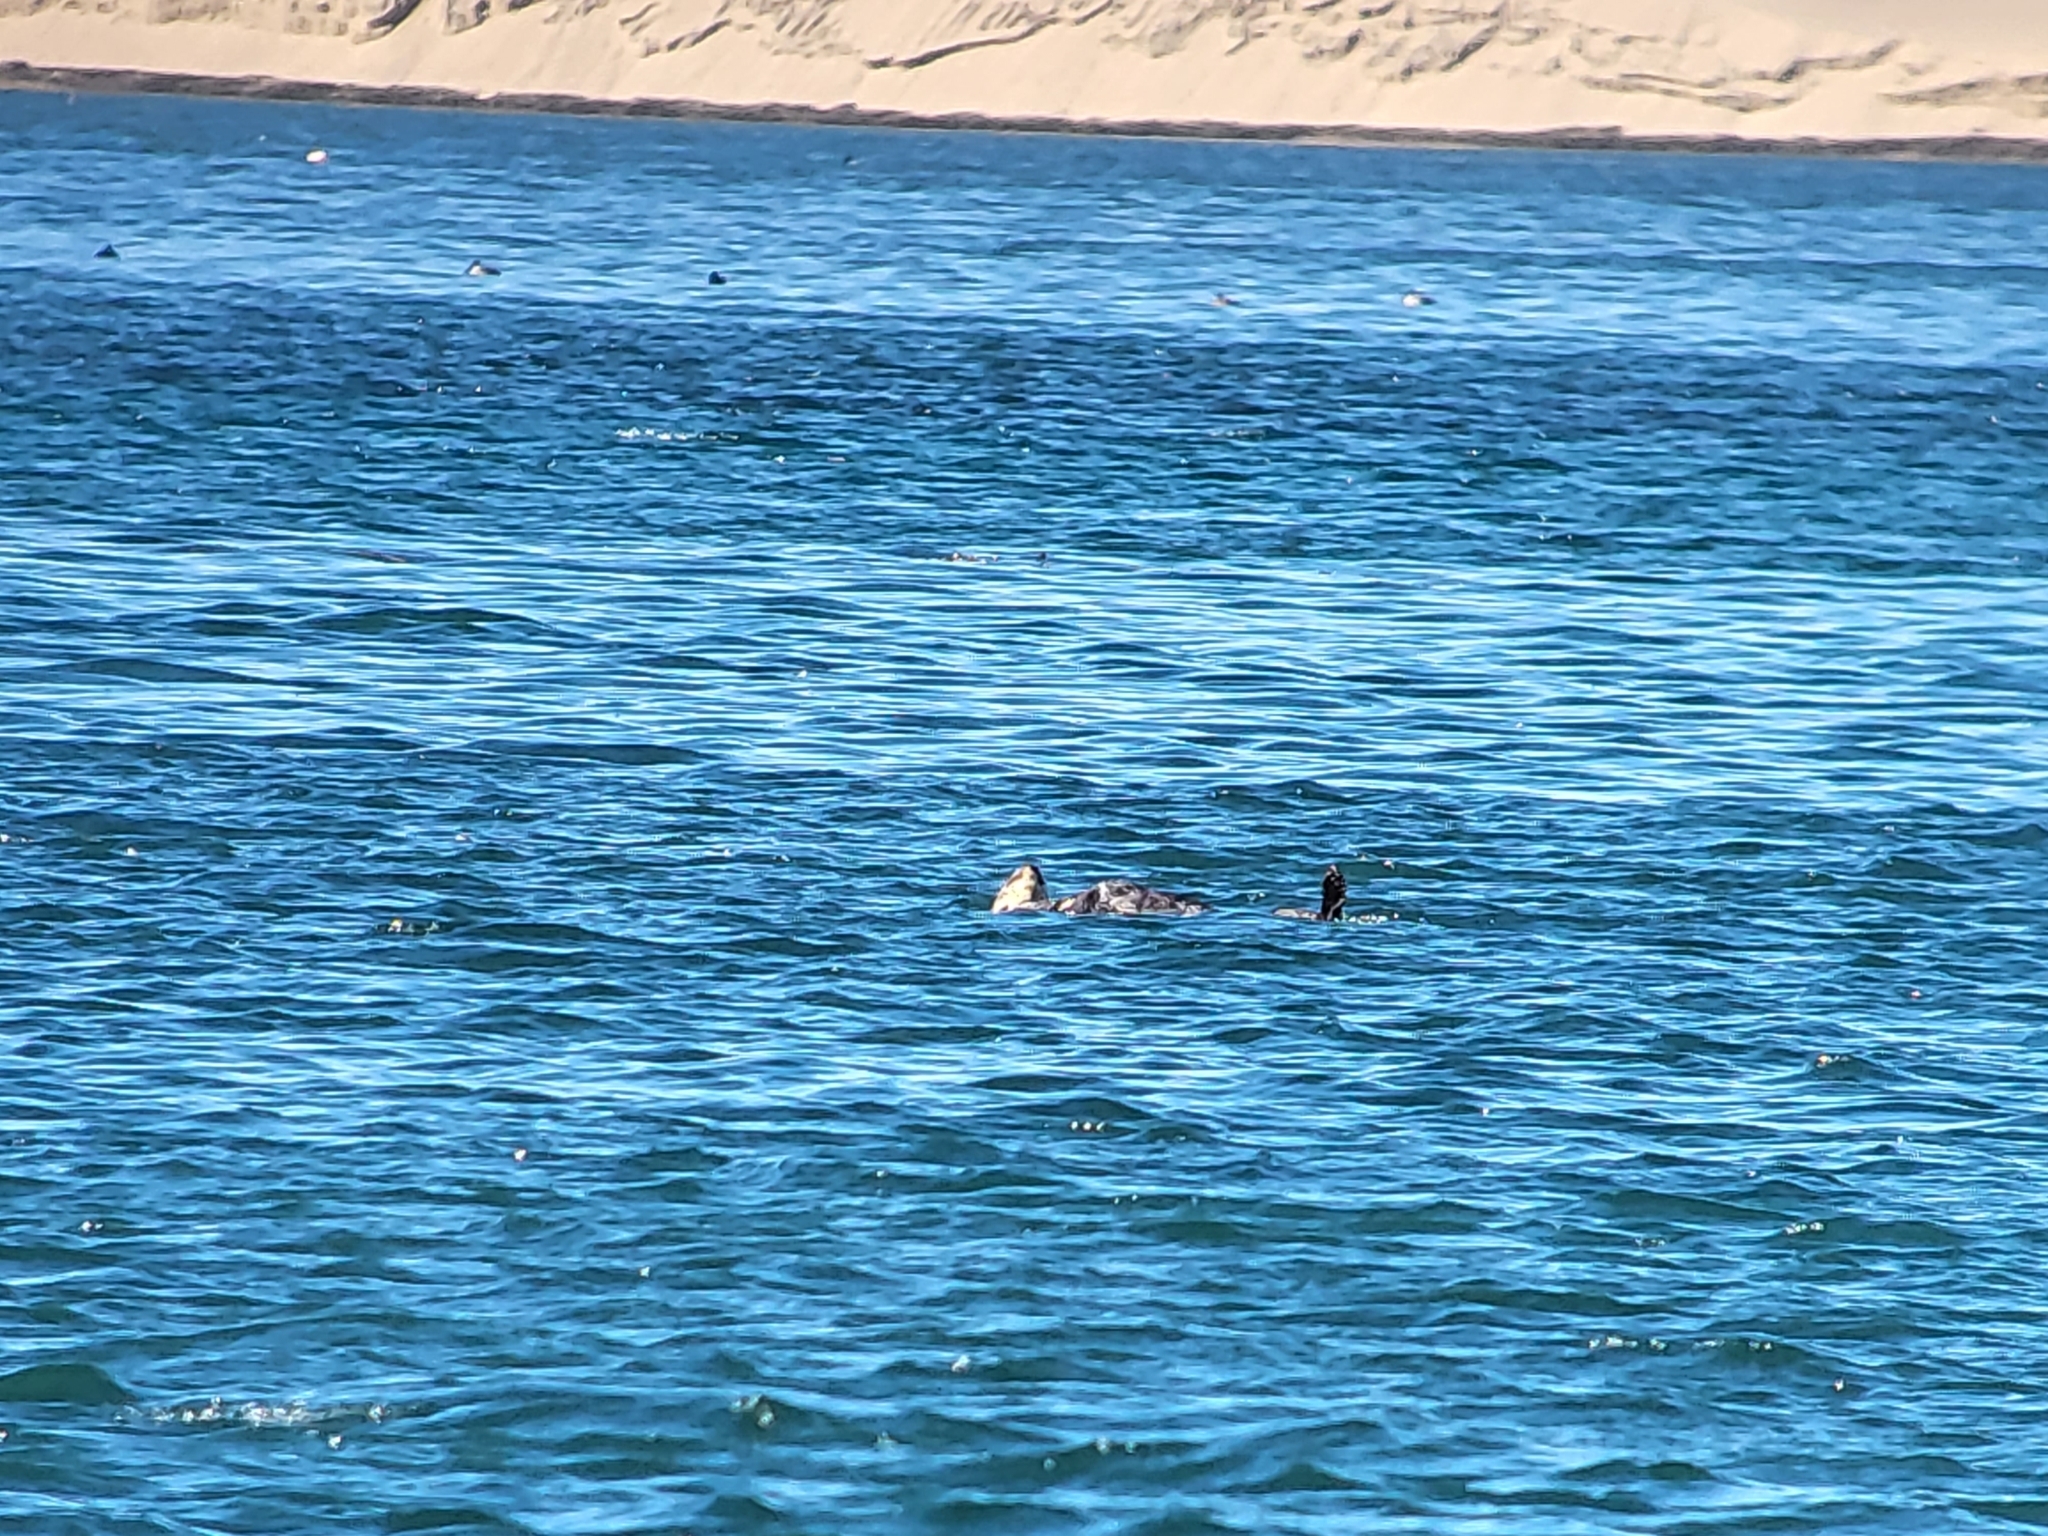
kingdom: Animalia
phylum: Chordata
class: Mammalia
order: Carnivora
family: Mustelidae
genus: Enhydra
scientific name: Enhydra lutris
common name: Sea otter
